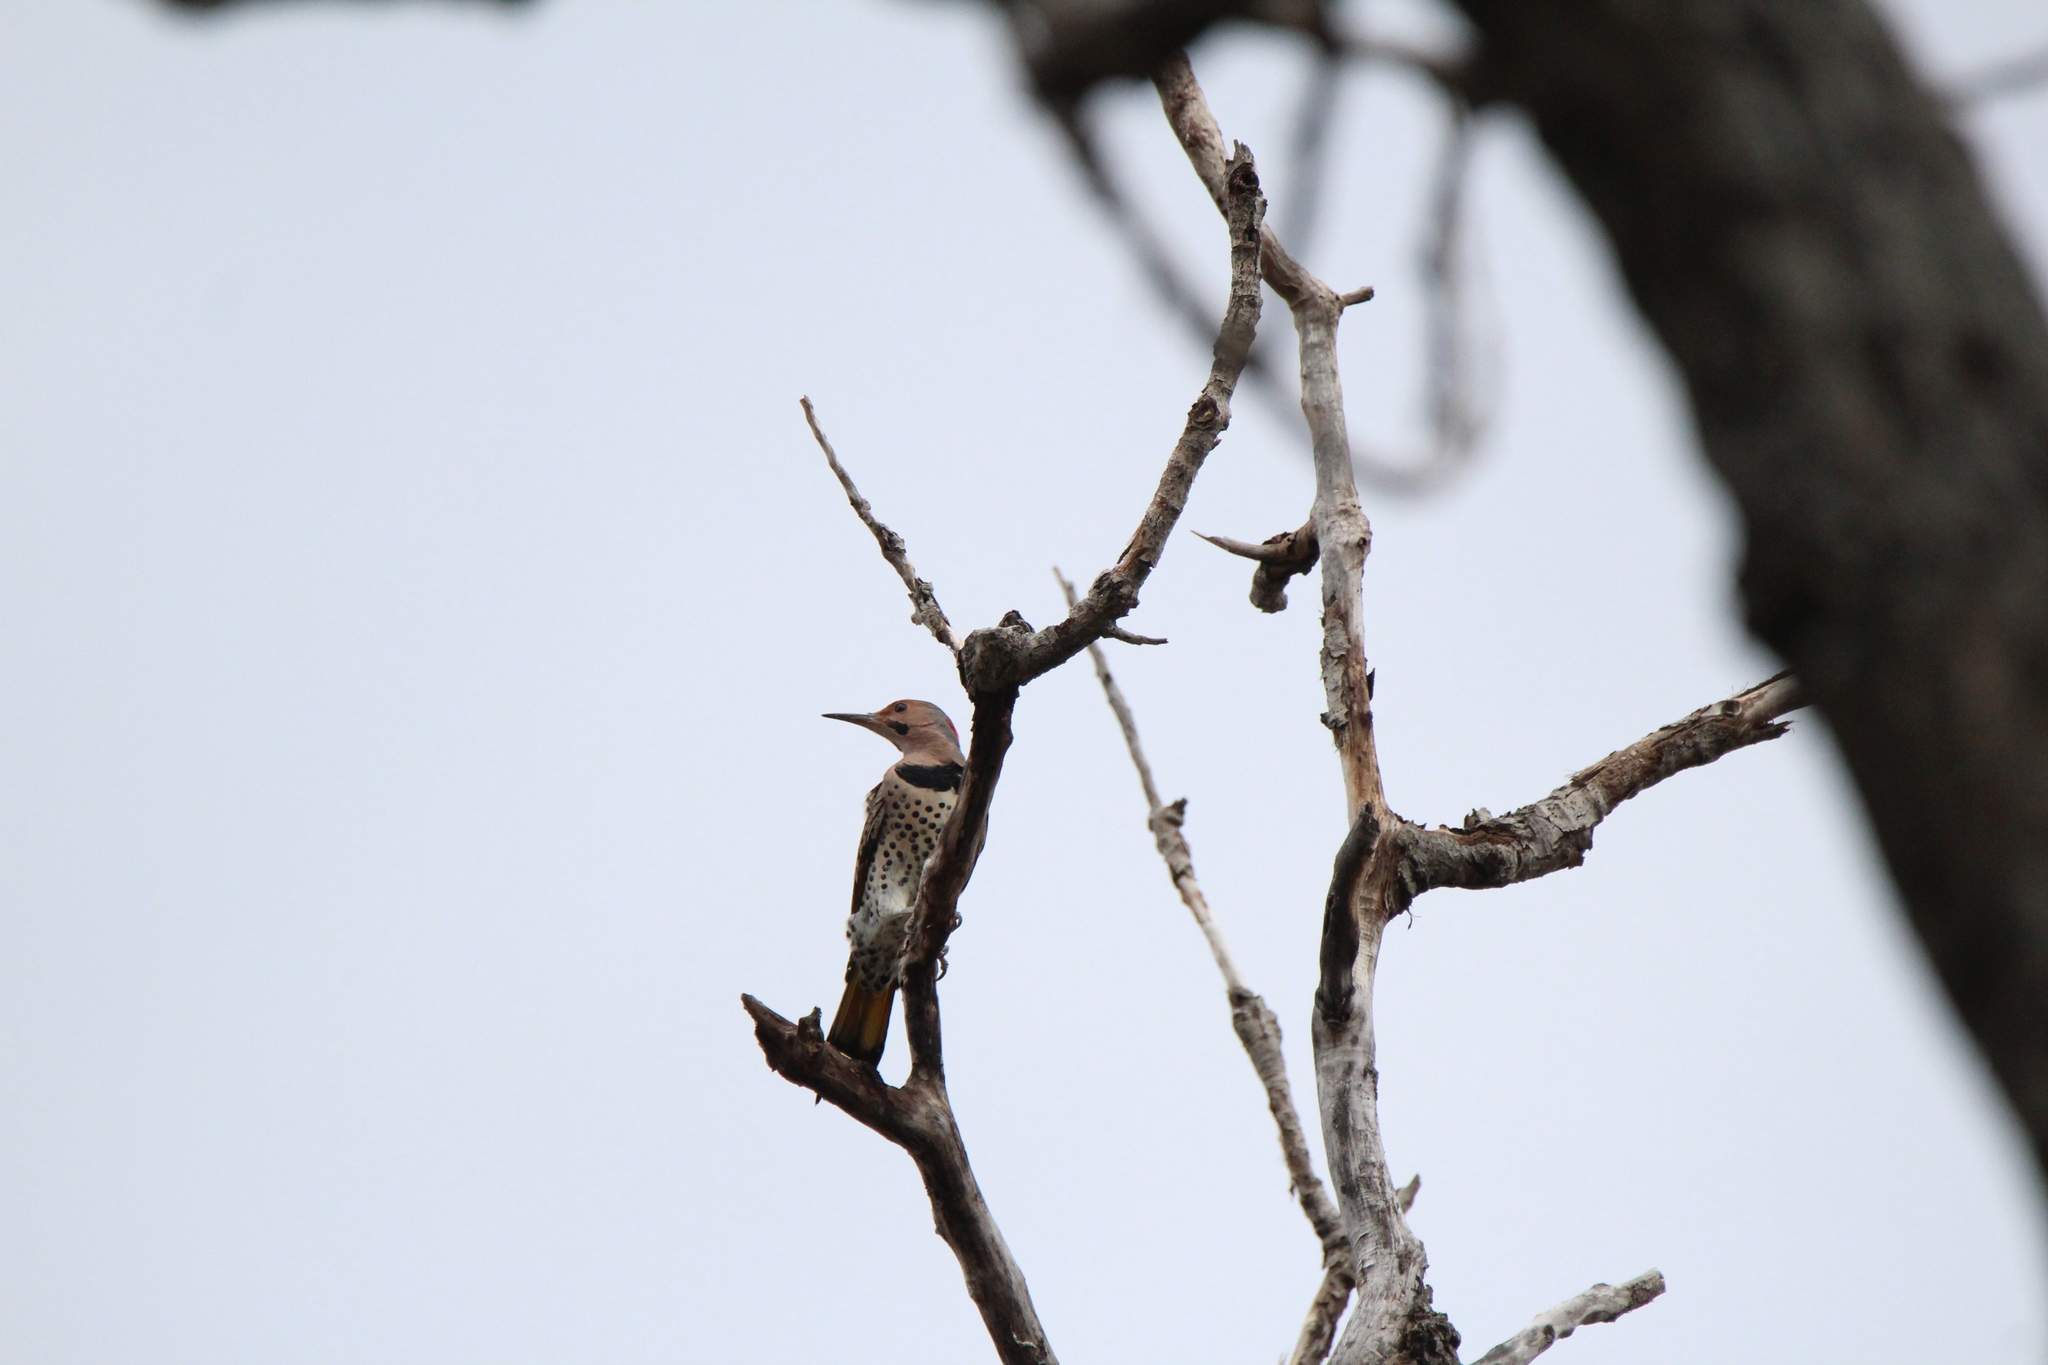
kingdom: Animalia
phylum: Chordata
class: Aves
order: Piciformes
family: Picidae
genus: Colaptes
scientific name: Colaptes auratus
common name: Northern flicker
